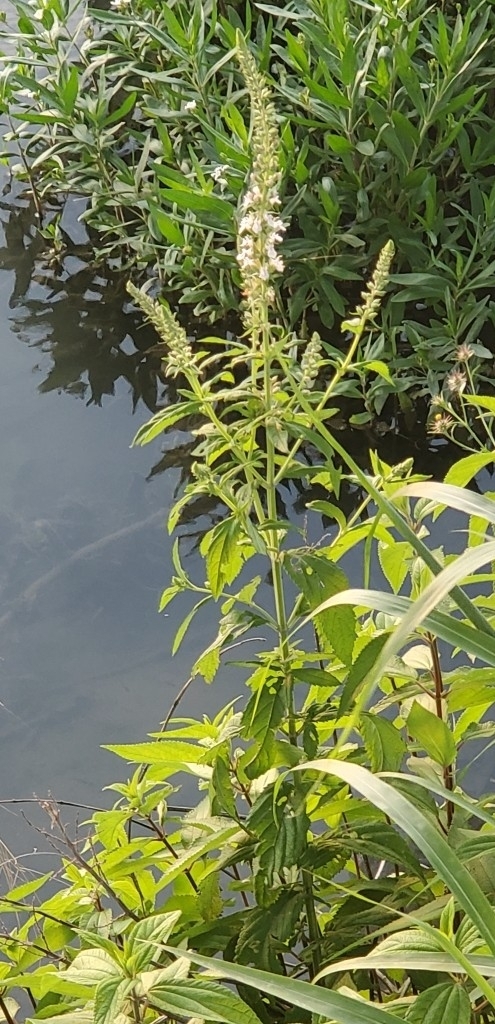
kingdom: Plantae
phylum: Tracheophyta
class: Magnoliopsida
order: Lamiales
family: Lamiaceae
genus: Teucrium
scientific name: Teucrium canadense
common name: American germander
